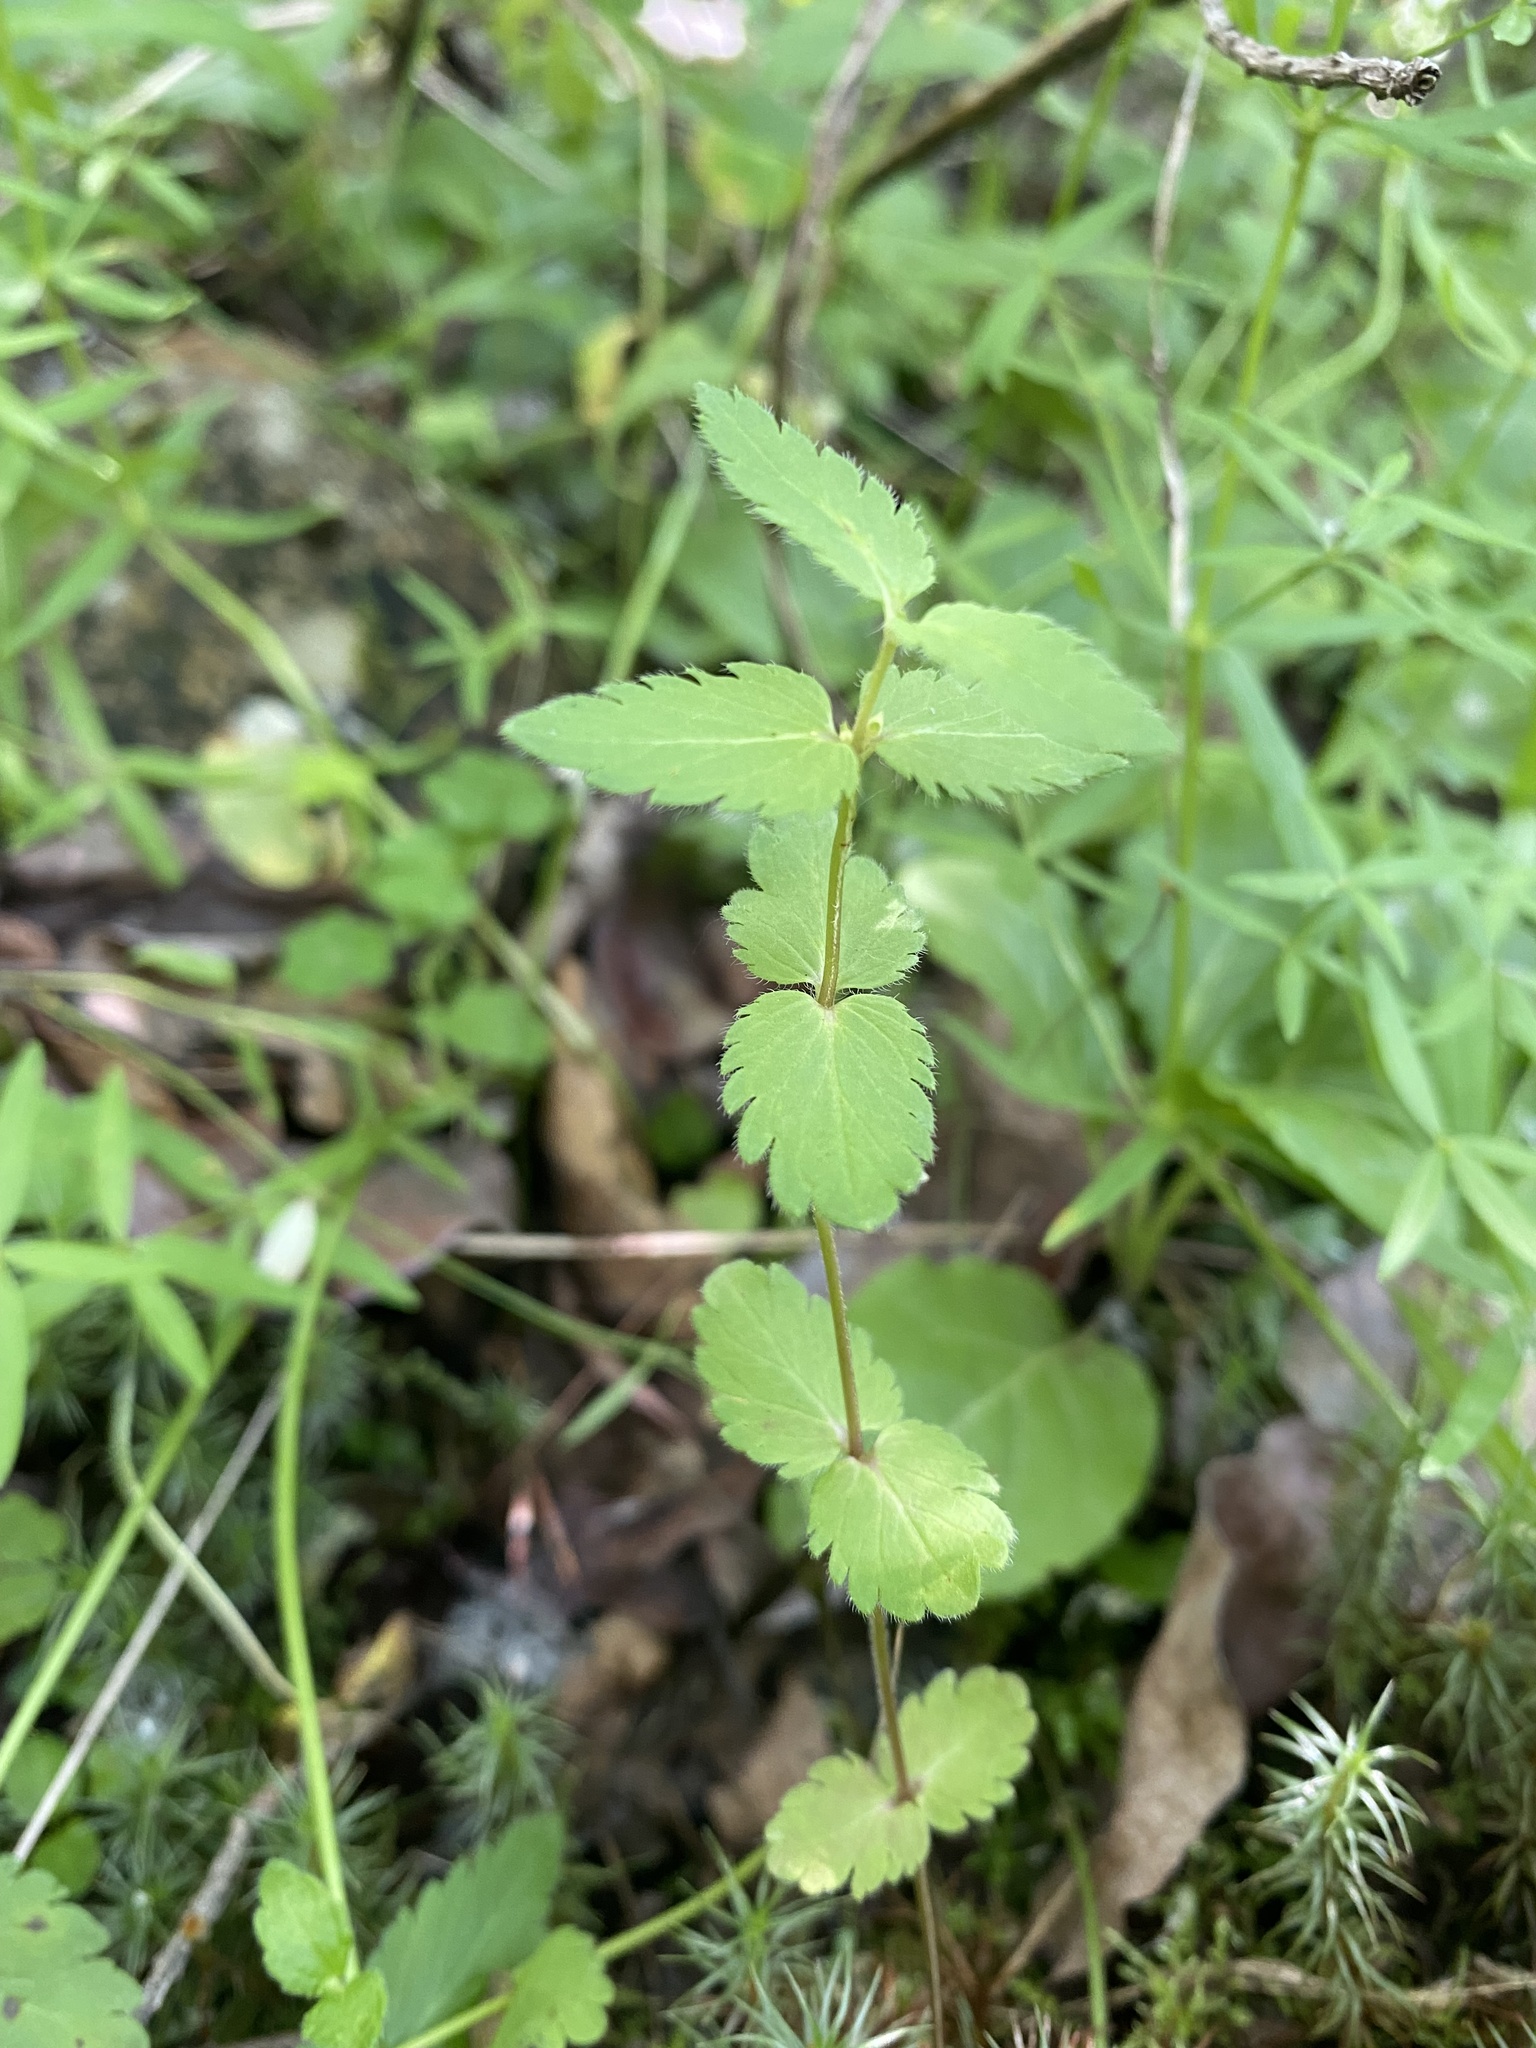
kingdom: Plantae
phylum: Tracheophyta
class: Magnoliopsida
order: Lamiales
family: Plantaginaceae
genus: Veronica
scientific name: Veronica chamaedrys
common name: Germander speedwell
